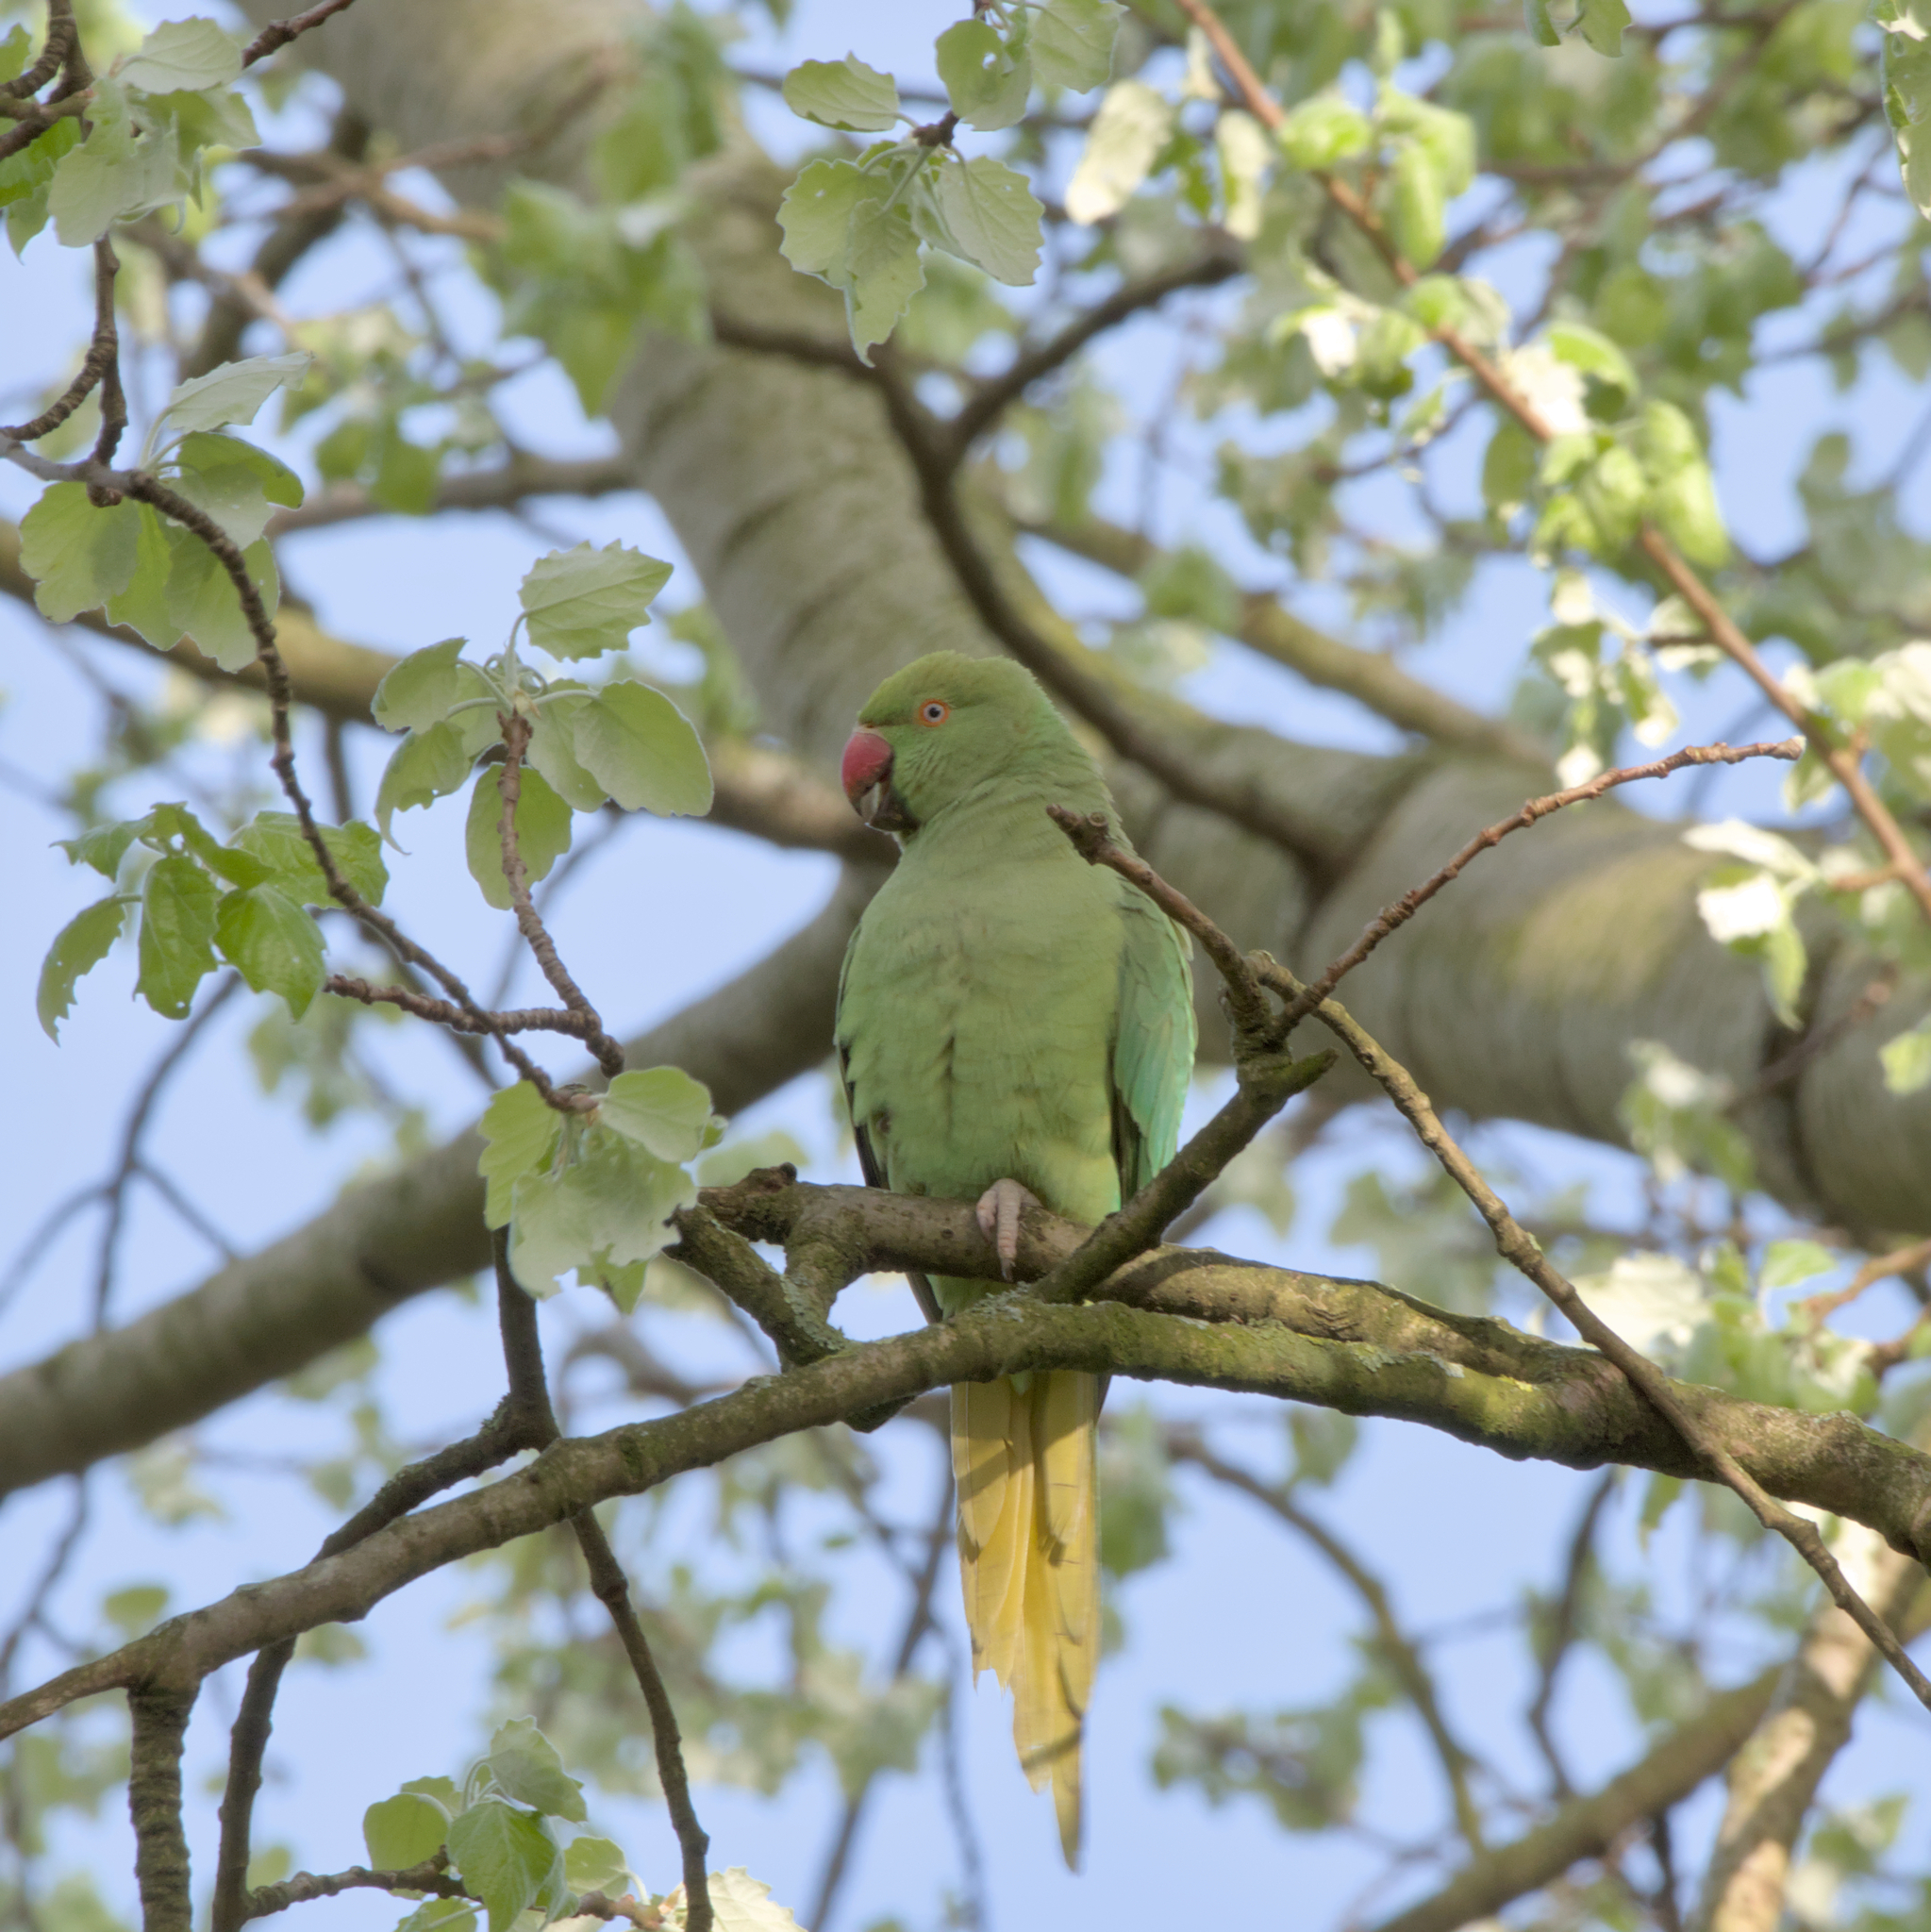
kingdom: Animalia
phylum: Chordata
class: Aves
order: Psittaciformes
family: Psittacidae
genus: Psittacula
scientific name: Psittacula krameri
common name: Rose-ringed parakeet
